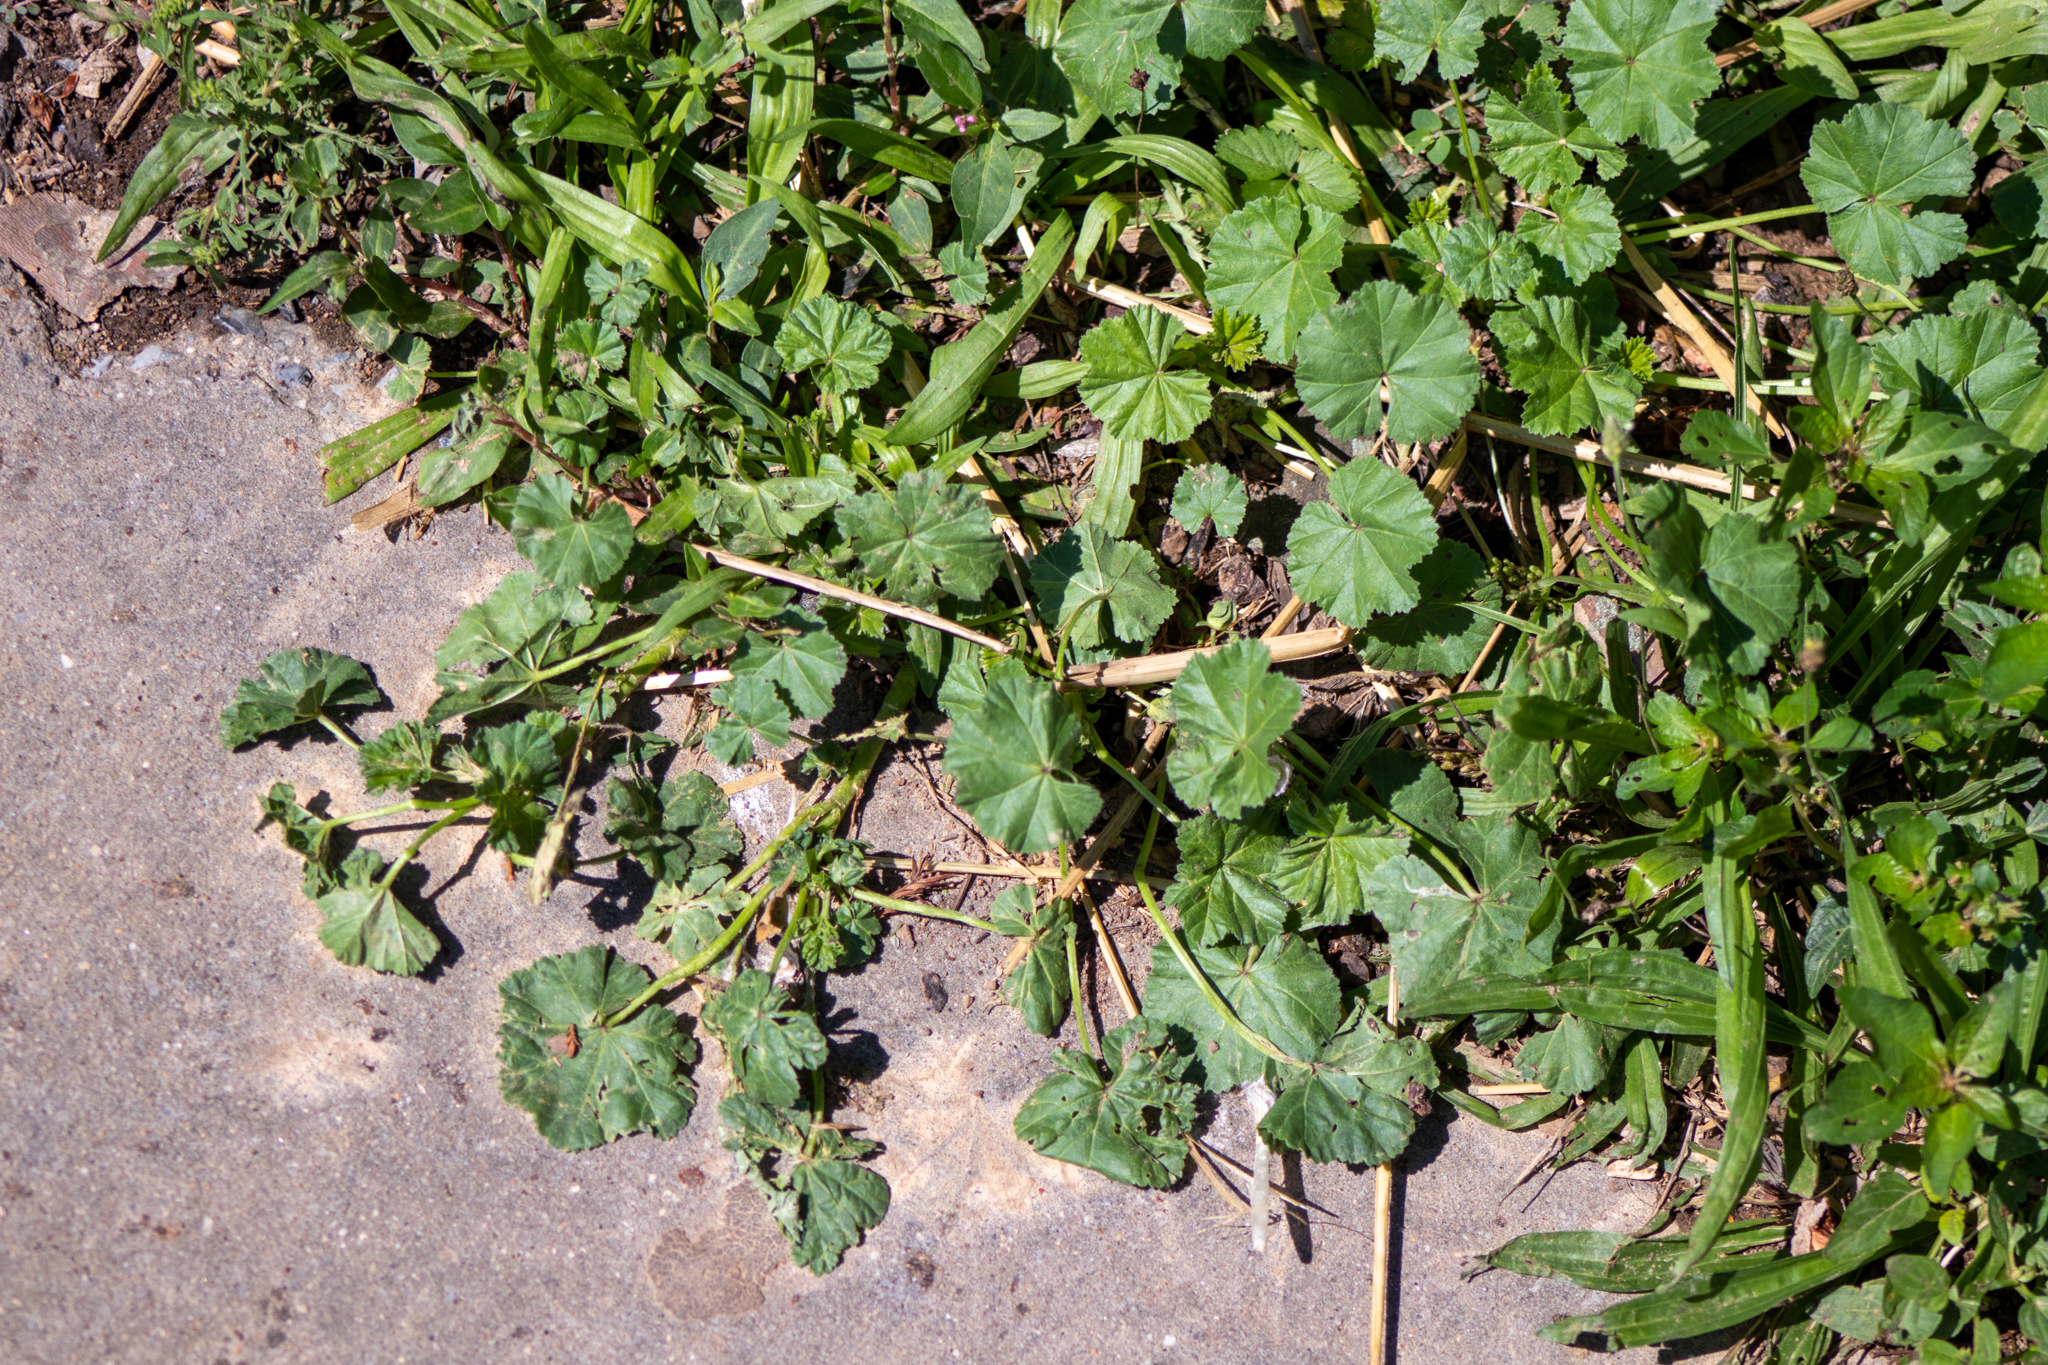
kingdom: Plantae
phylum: Tracheophyta
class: Magnoliopsida
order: Malvales
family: Malvaceae
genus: Malva
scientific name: Malva neglecta
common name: Common mallow
